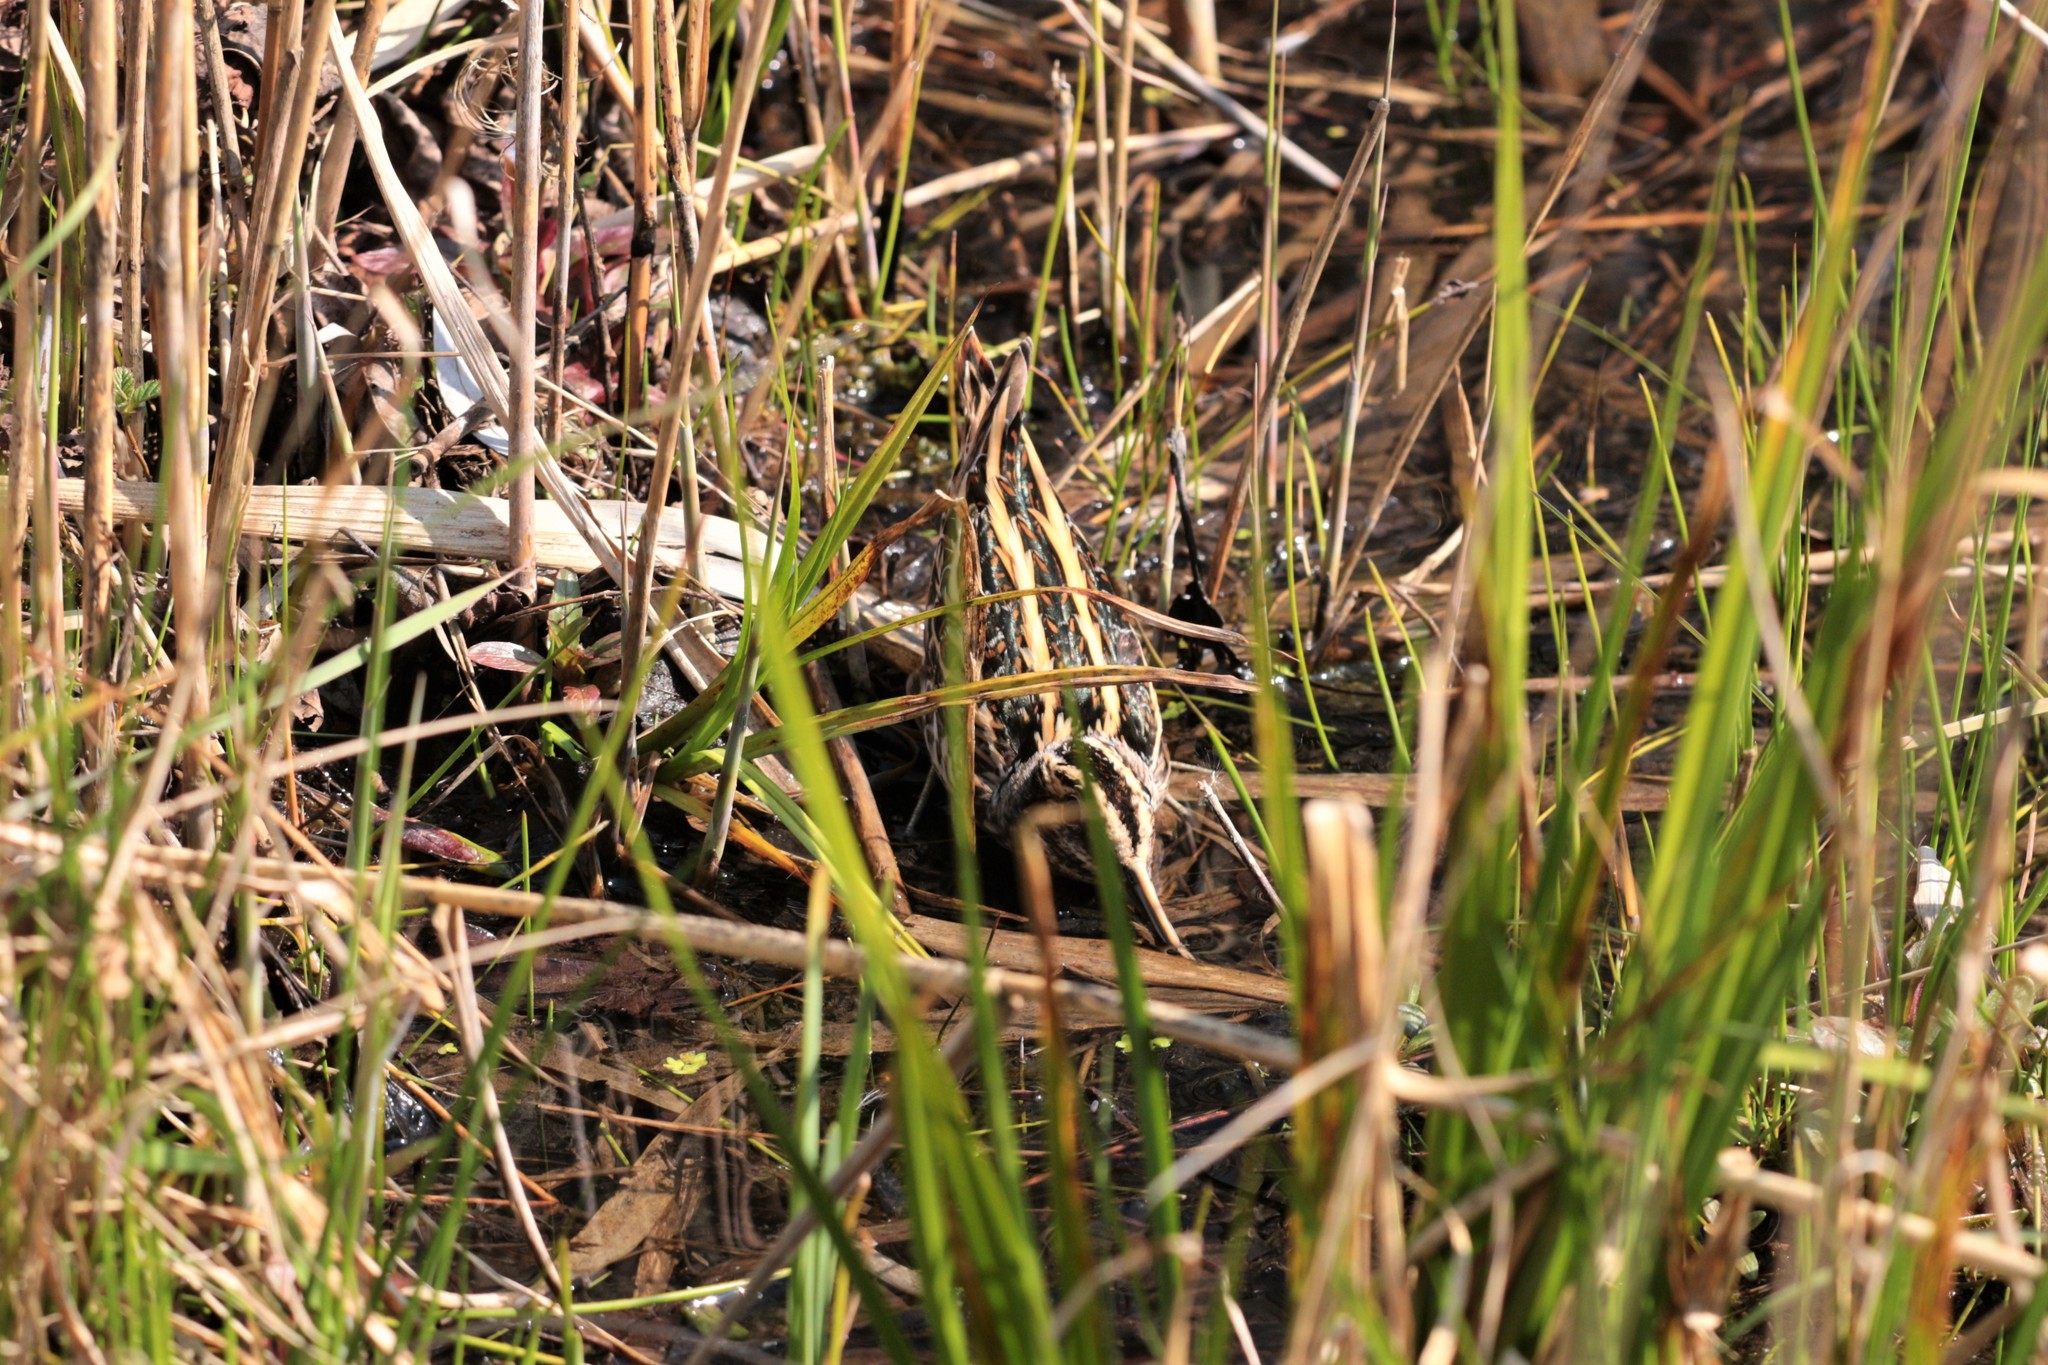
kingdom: Animalia
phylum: Chordata
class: Aves
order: Charadriiformes
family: Scolopacidae
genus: Lymnocryptes
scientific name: Lymnocryptes minimus
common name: Jack snipe
